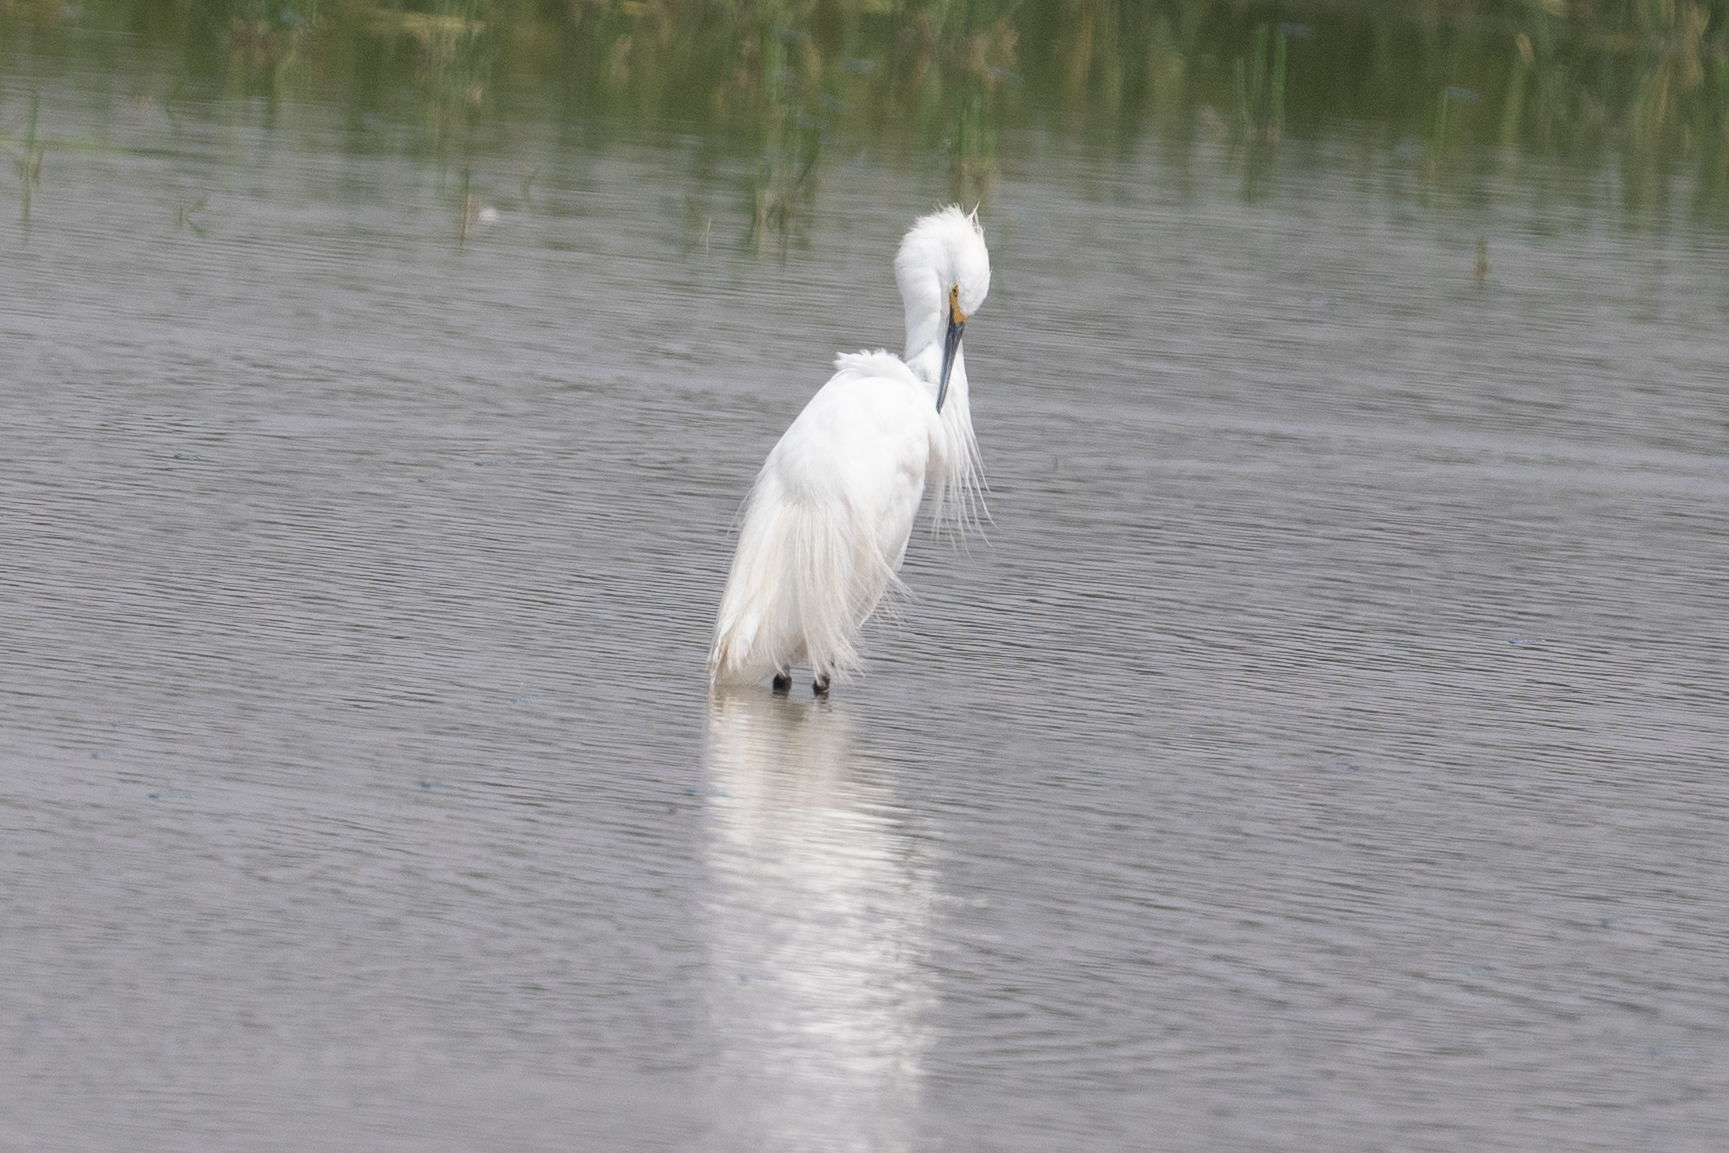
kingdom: Animalia
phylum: Chordata
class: Aves
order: Pelecaniformes
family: Ardeidae
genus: Egretta
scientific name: Egretta thula
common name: Snowy egret
